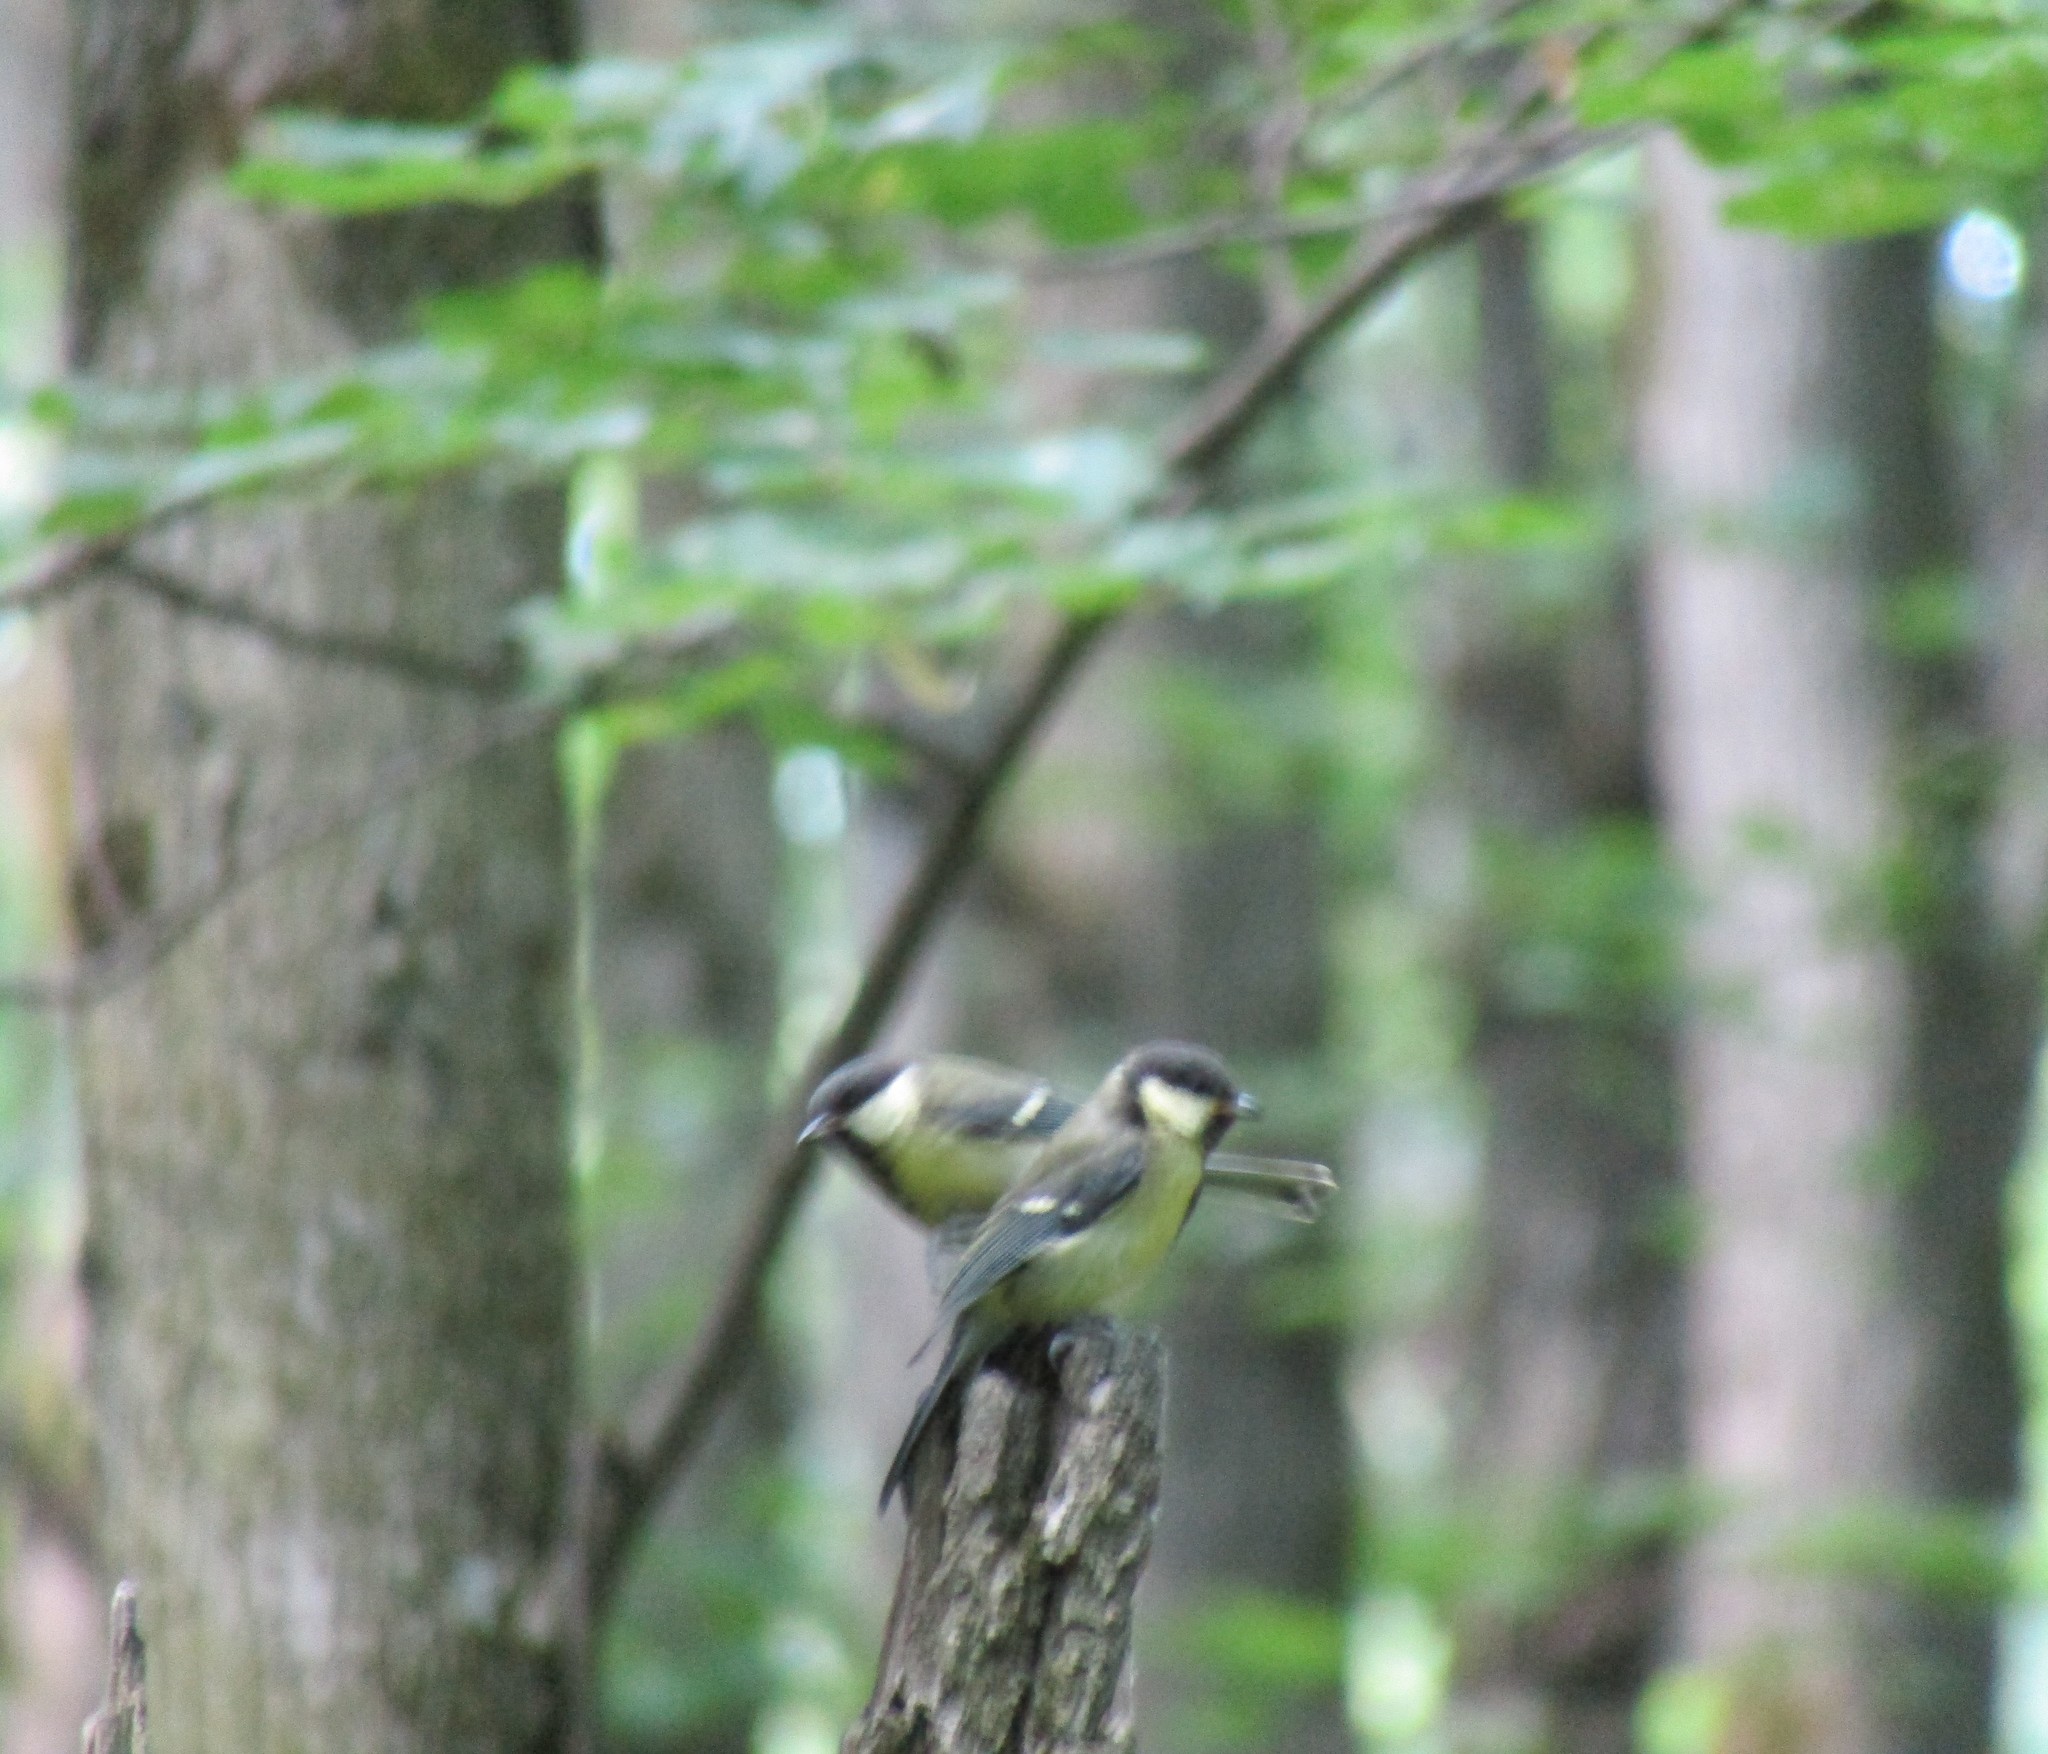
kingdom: Animalia
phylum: Chordata
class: Aves
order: Passeriformes
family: Paridae
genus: Parus
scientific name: Parus major
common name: Great tit
